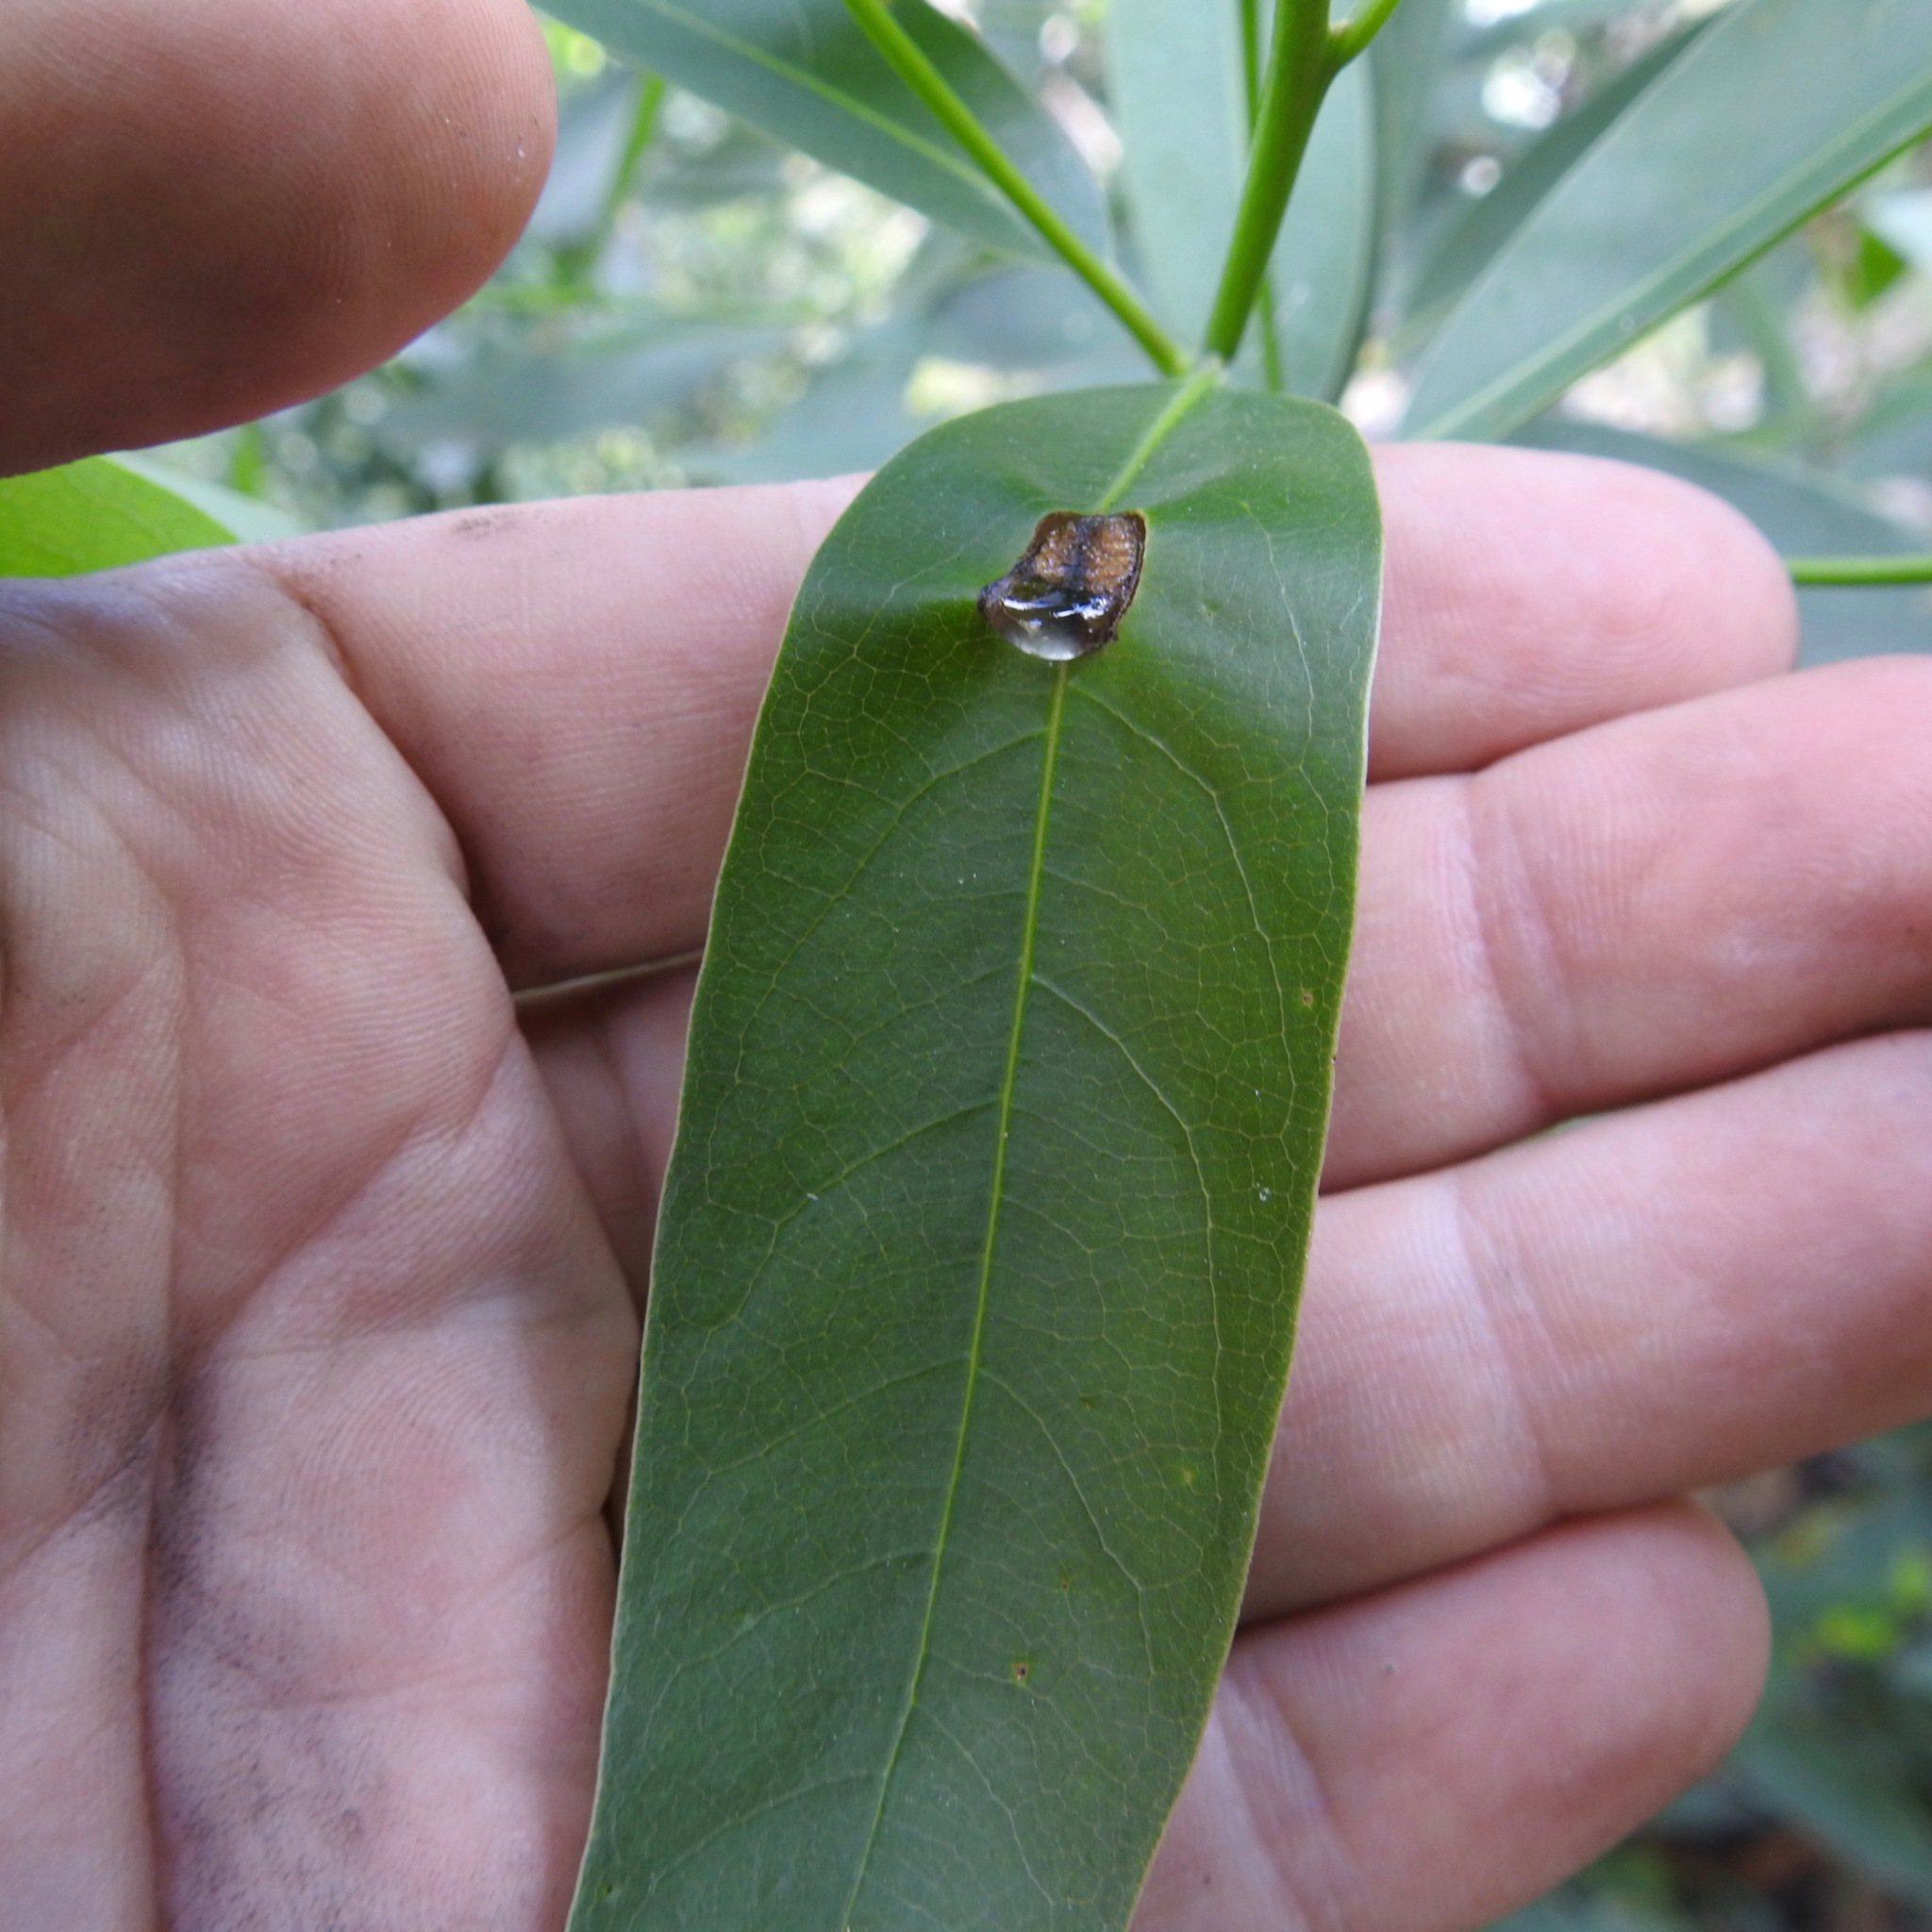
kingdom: Chromista
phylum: Oomycota
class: Peronosporea
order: Peronosporales
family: Peronosporaceae
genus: Phytophthora
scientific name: Phytophthora ramorum
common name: Sudden oak death
